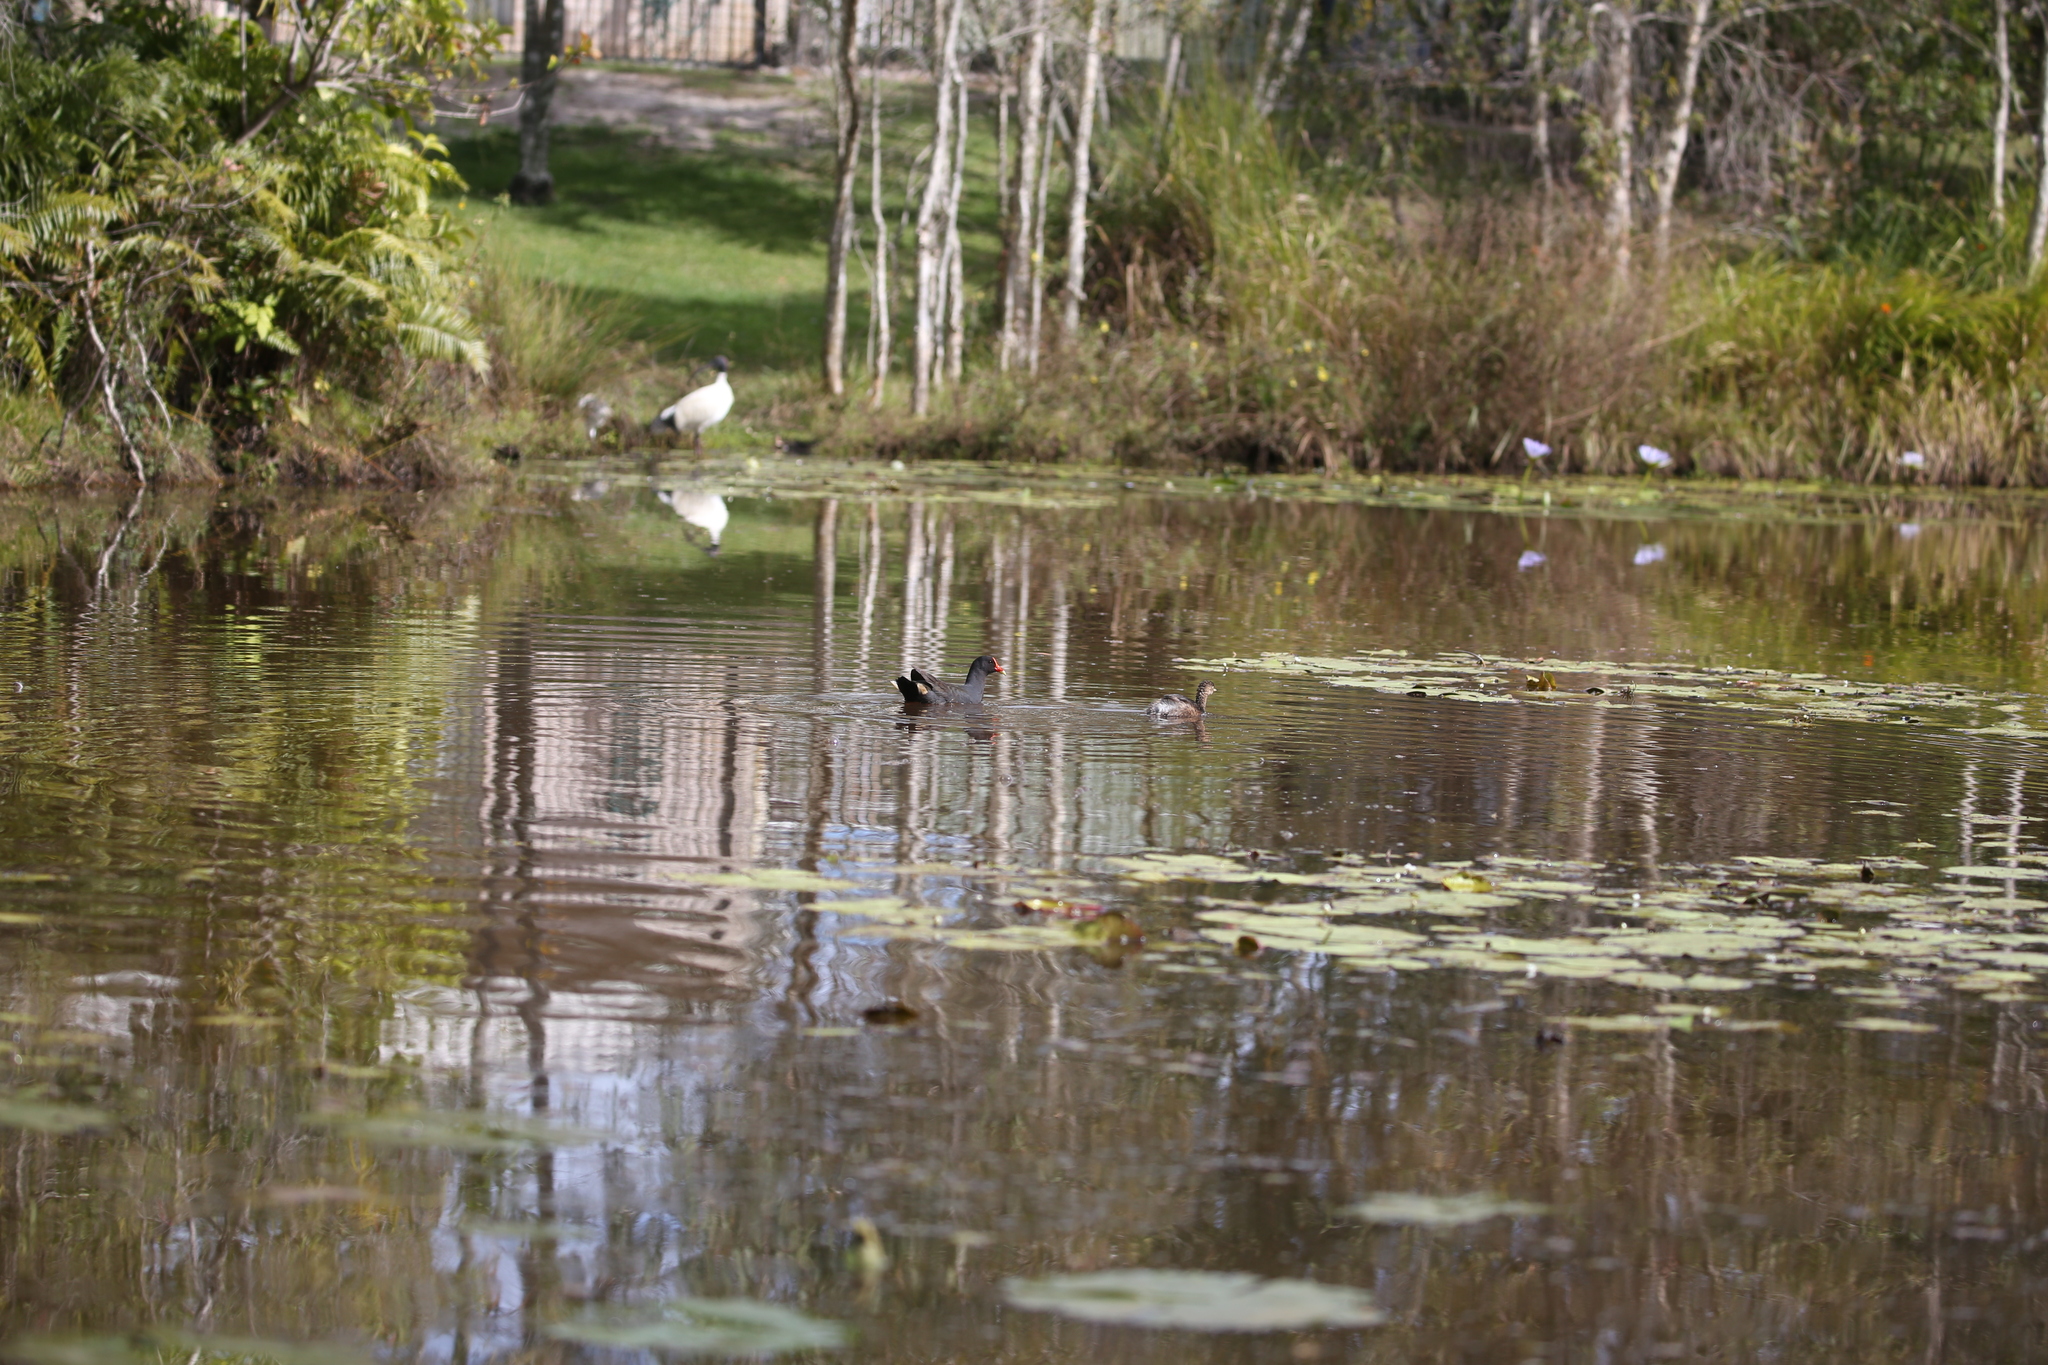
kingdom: Animalia
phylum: Chordata
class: Aves
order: Podicipediformes
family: Podicipedidae
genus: Tachybaptus
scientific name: Tachybaptus novaehollandiae
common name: Australasian grebe
